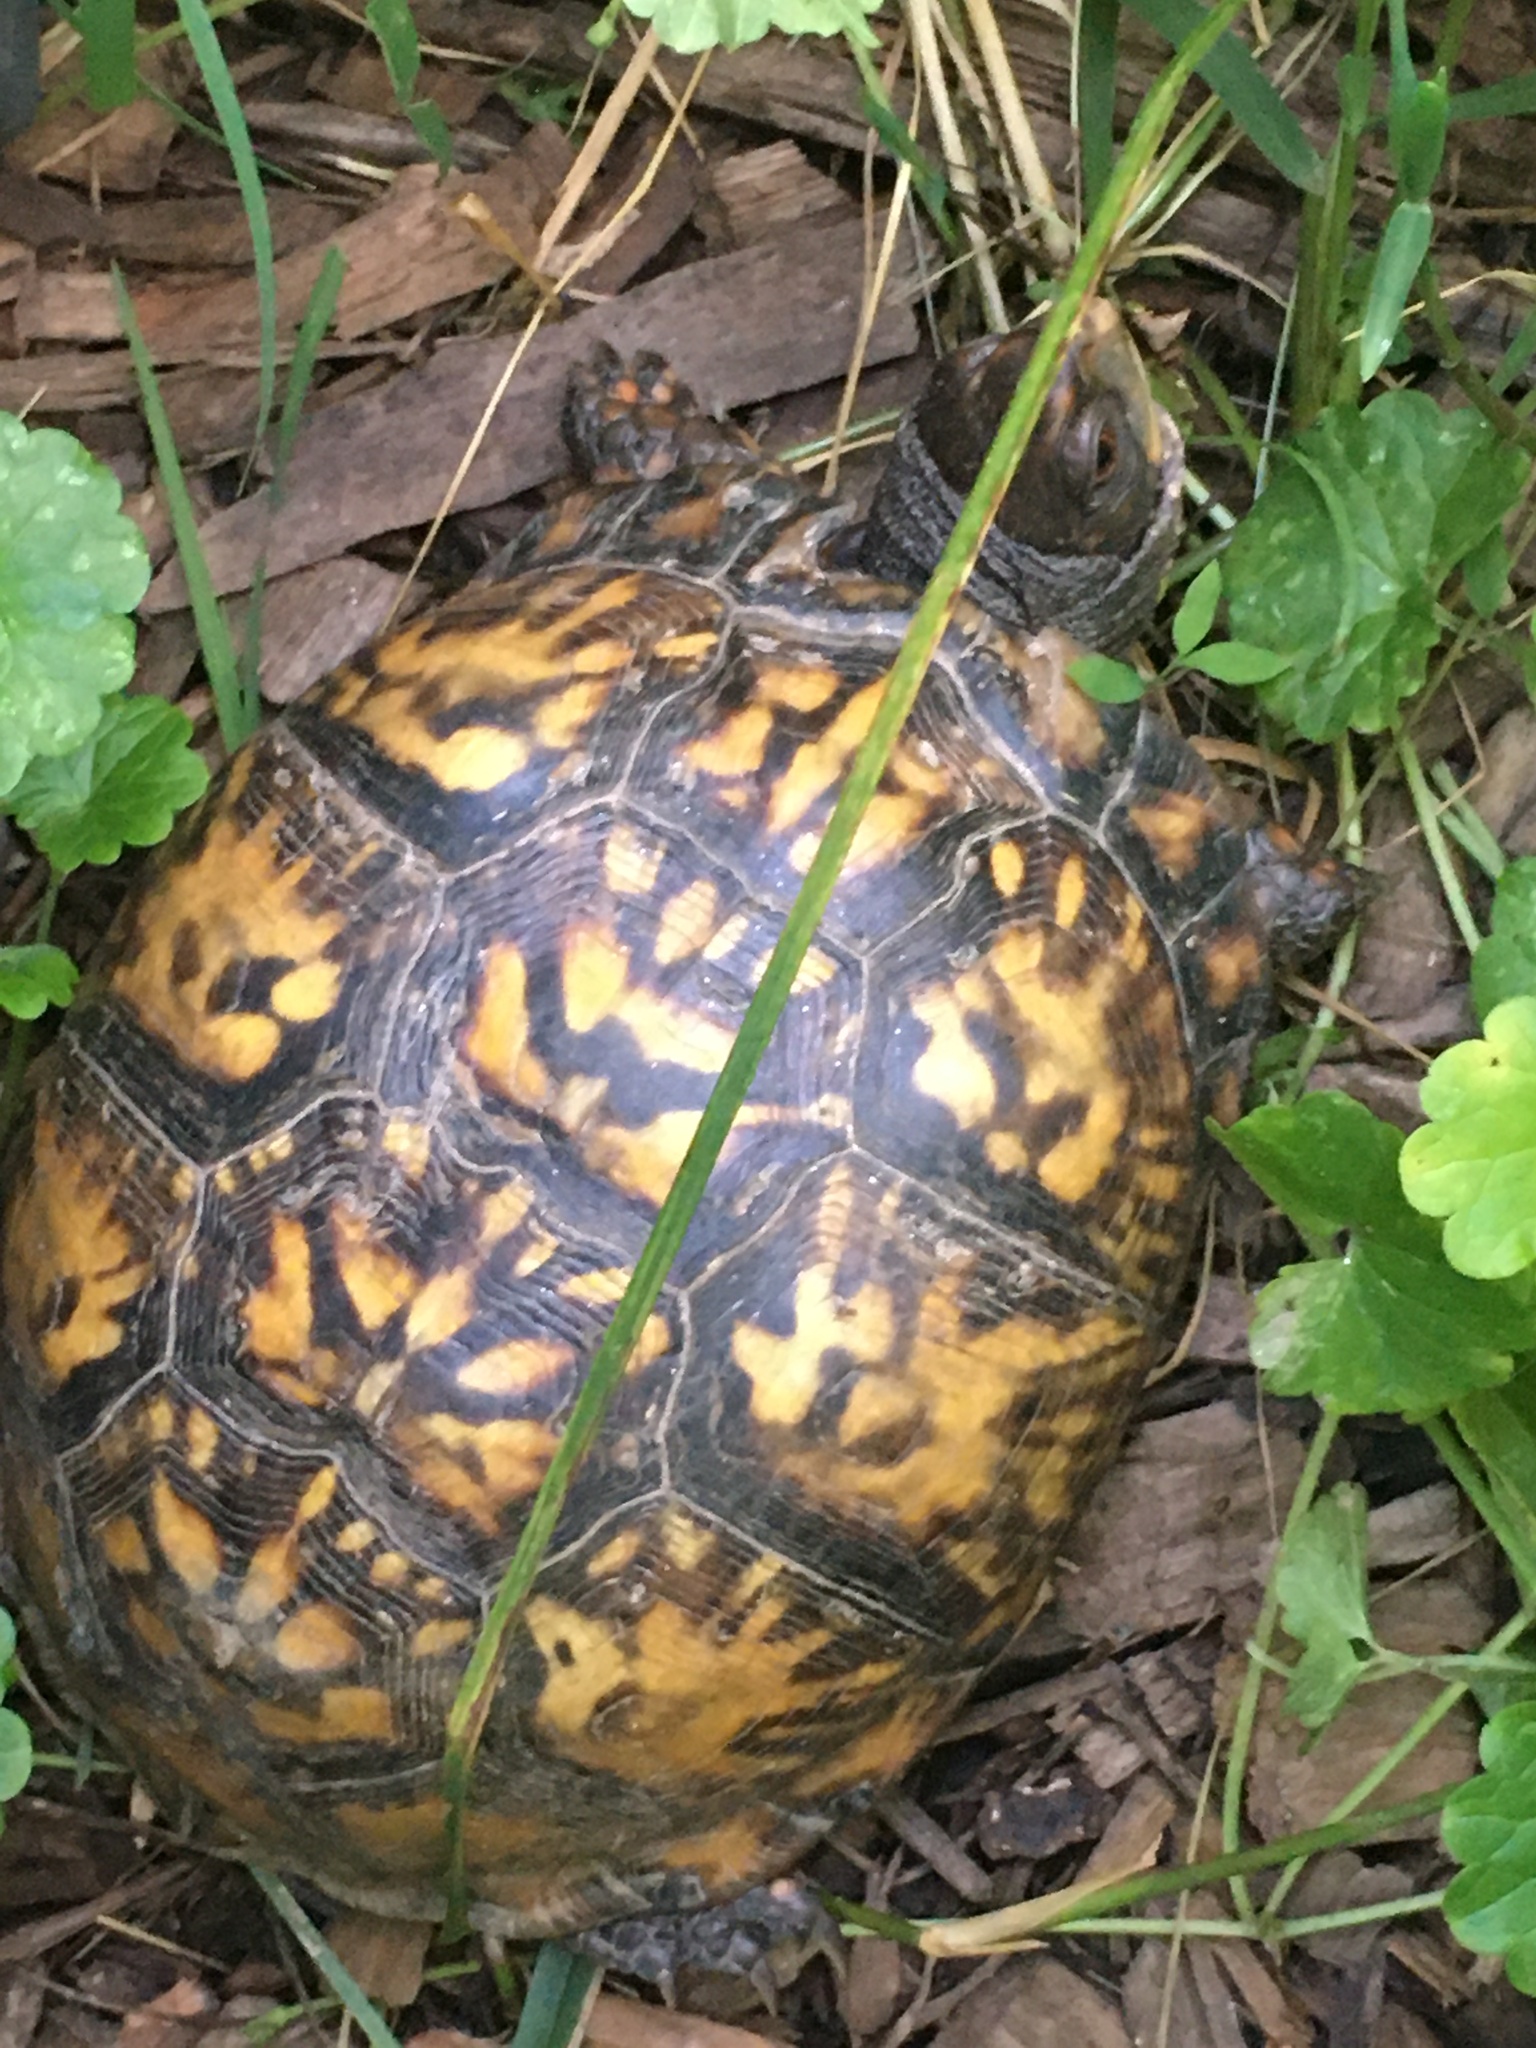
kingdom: Animalia
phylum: Chordata
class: Testudines
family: Emydidae
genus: Terrapene
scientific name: Terrapene carolina
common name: Common box turtle
